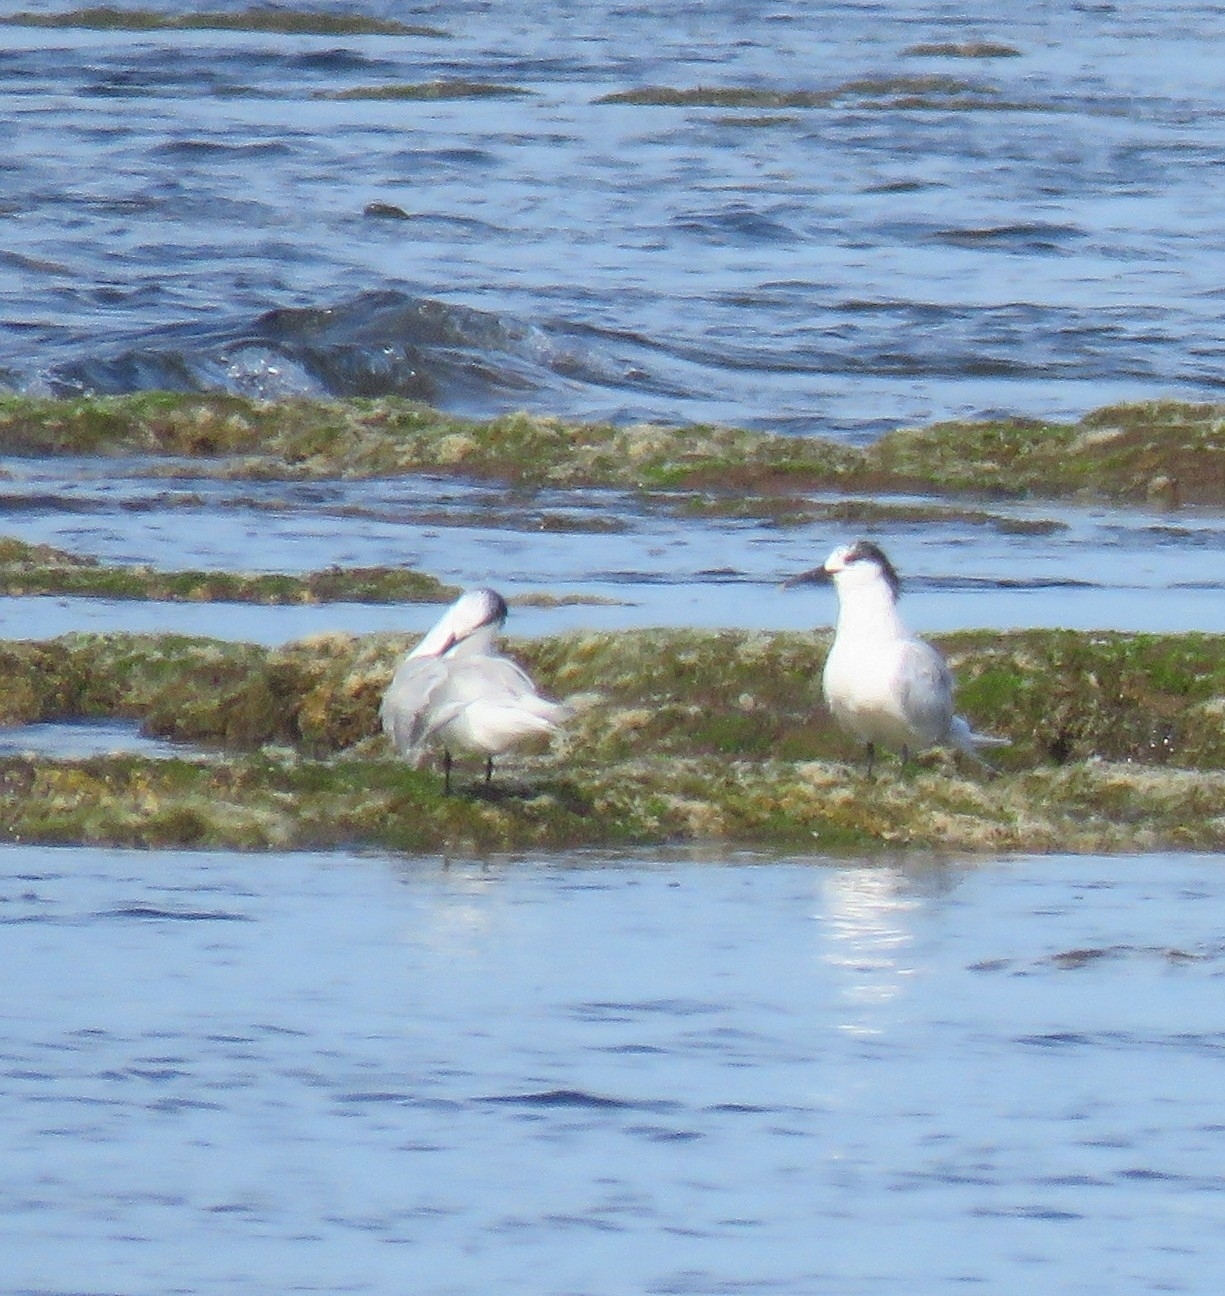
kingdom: Animalia
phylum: Chordata
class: Aves
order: Charadriiformes
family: Laridae
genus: Thalasseus
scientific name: Thalasseus sandvicensis
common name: Sandwich tern
